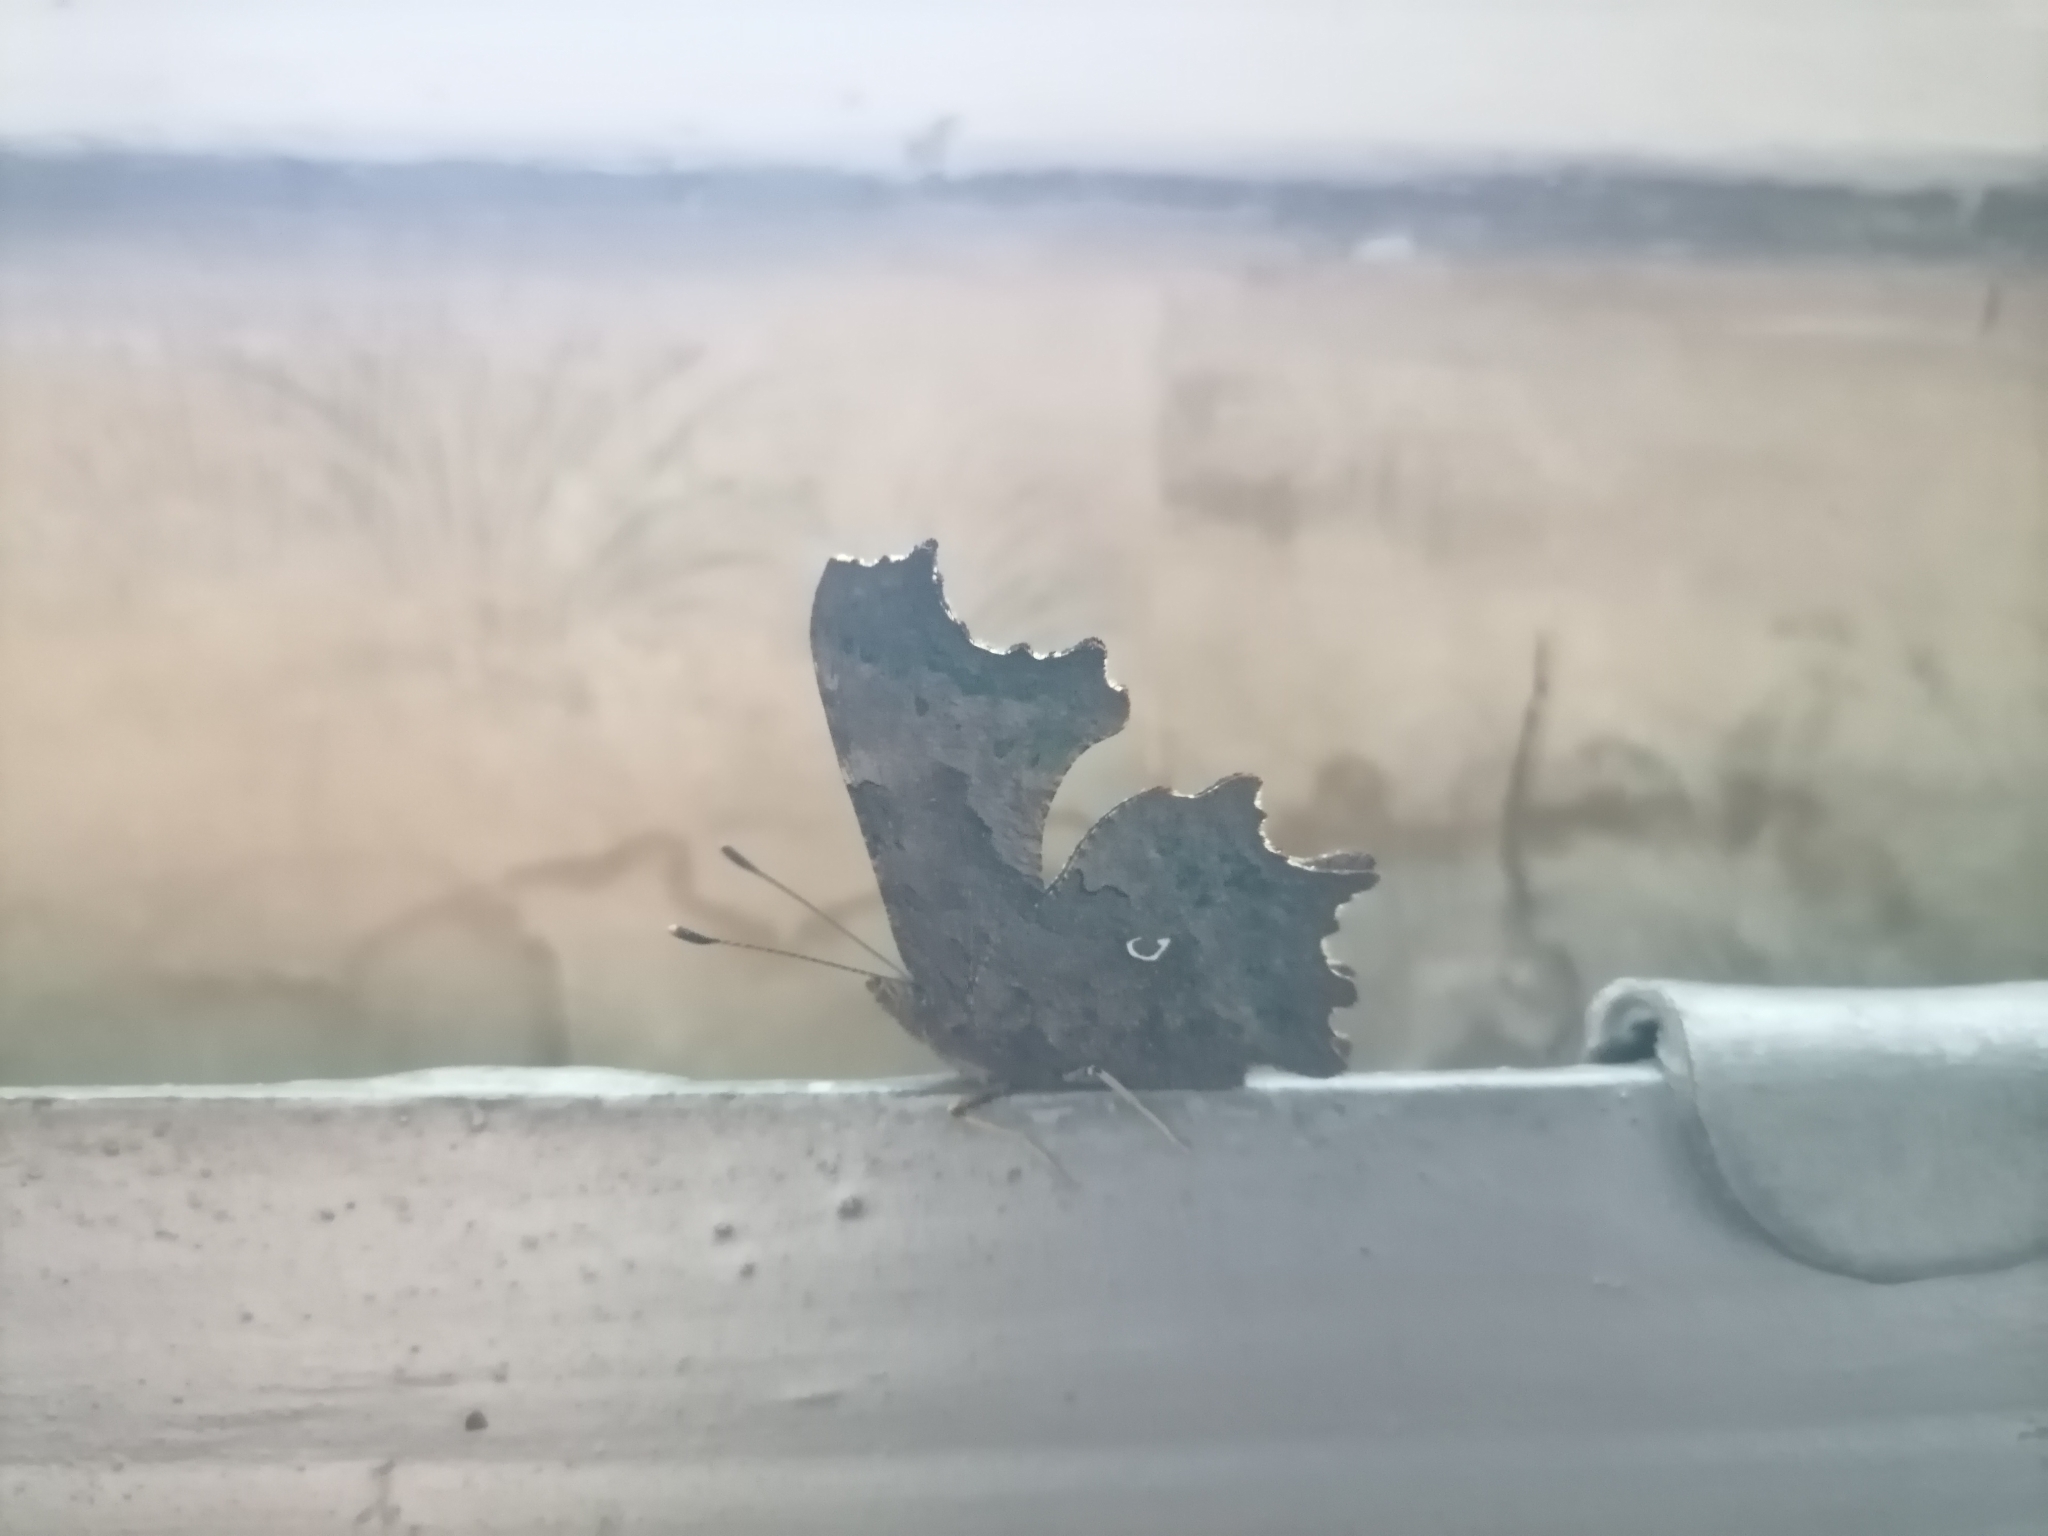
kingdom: Animalia
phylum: Arthropoda
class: Insecta
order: Lepidoptera
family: Nymphalidae
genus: Polygonia
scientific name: Polygonia c-album
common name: Comma
